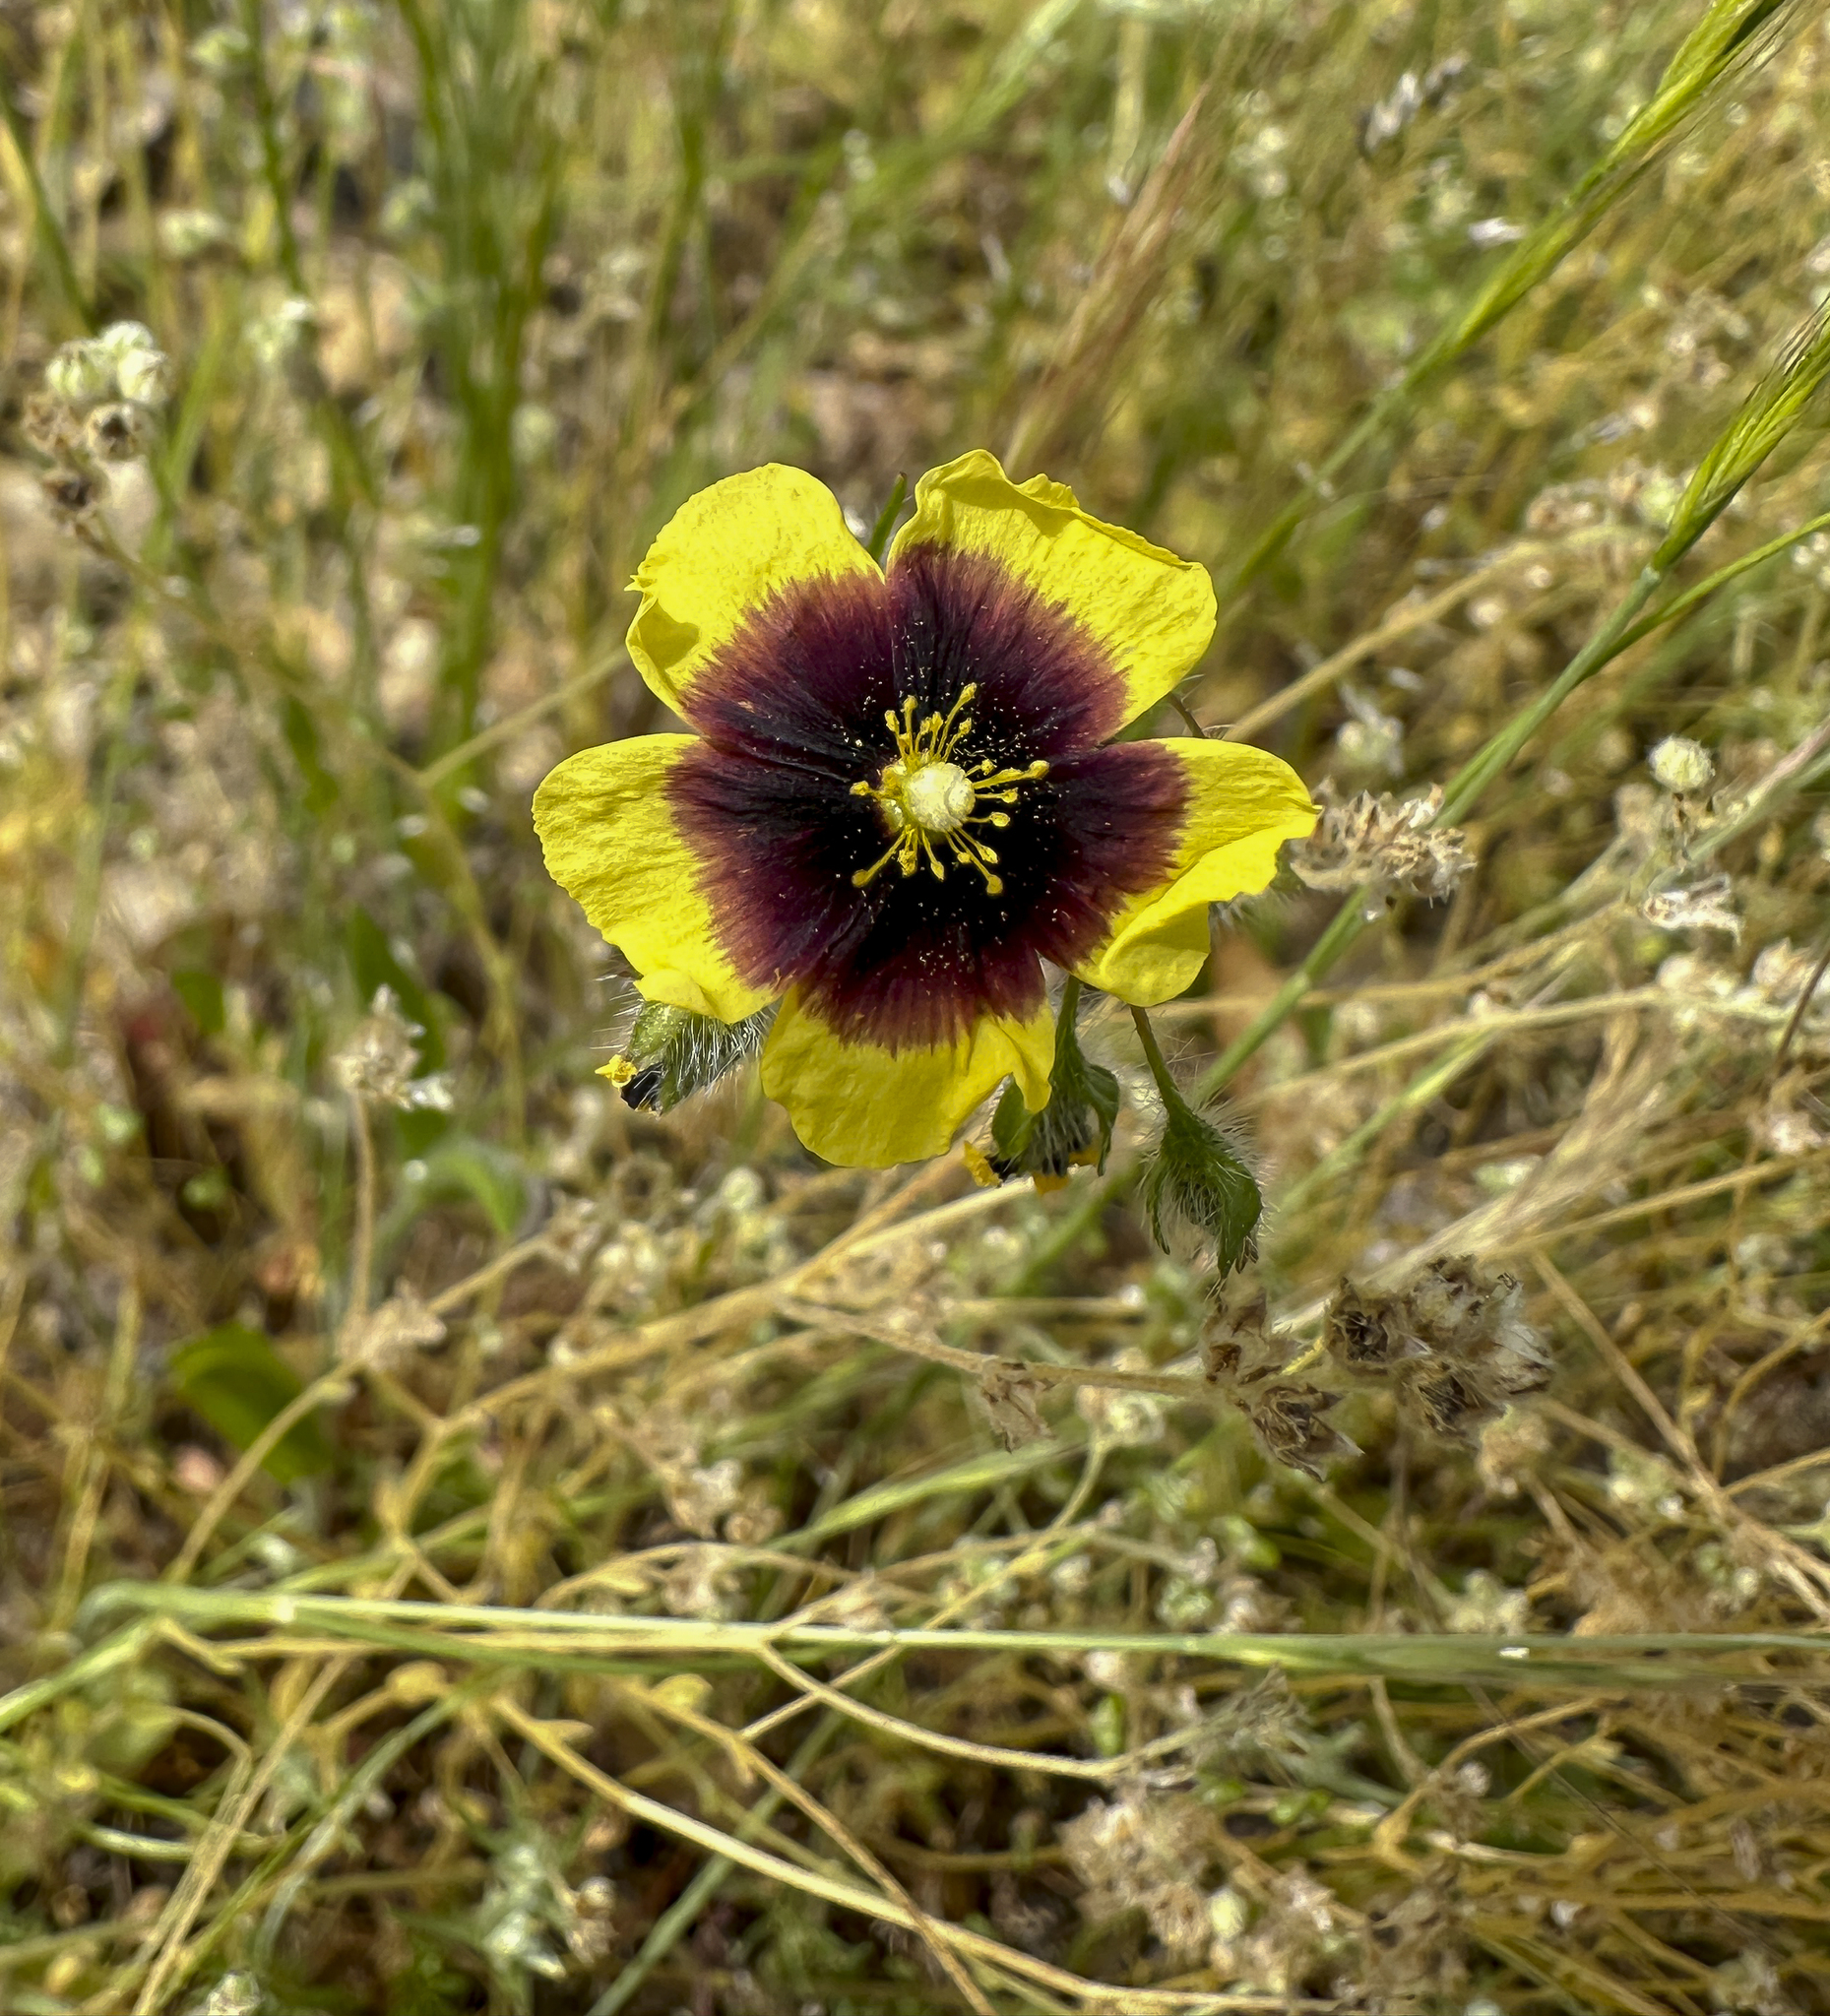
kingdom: Plantae
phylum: Tracheophyta
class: Magnoliopsida
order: Malvales
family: Cistaceae
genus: Tuberaria
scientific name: Tuberaria guttata
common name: Spotted rock-rose
